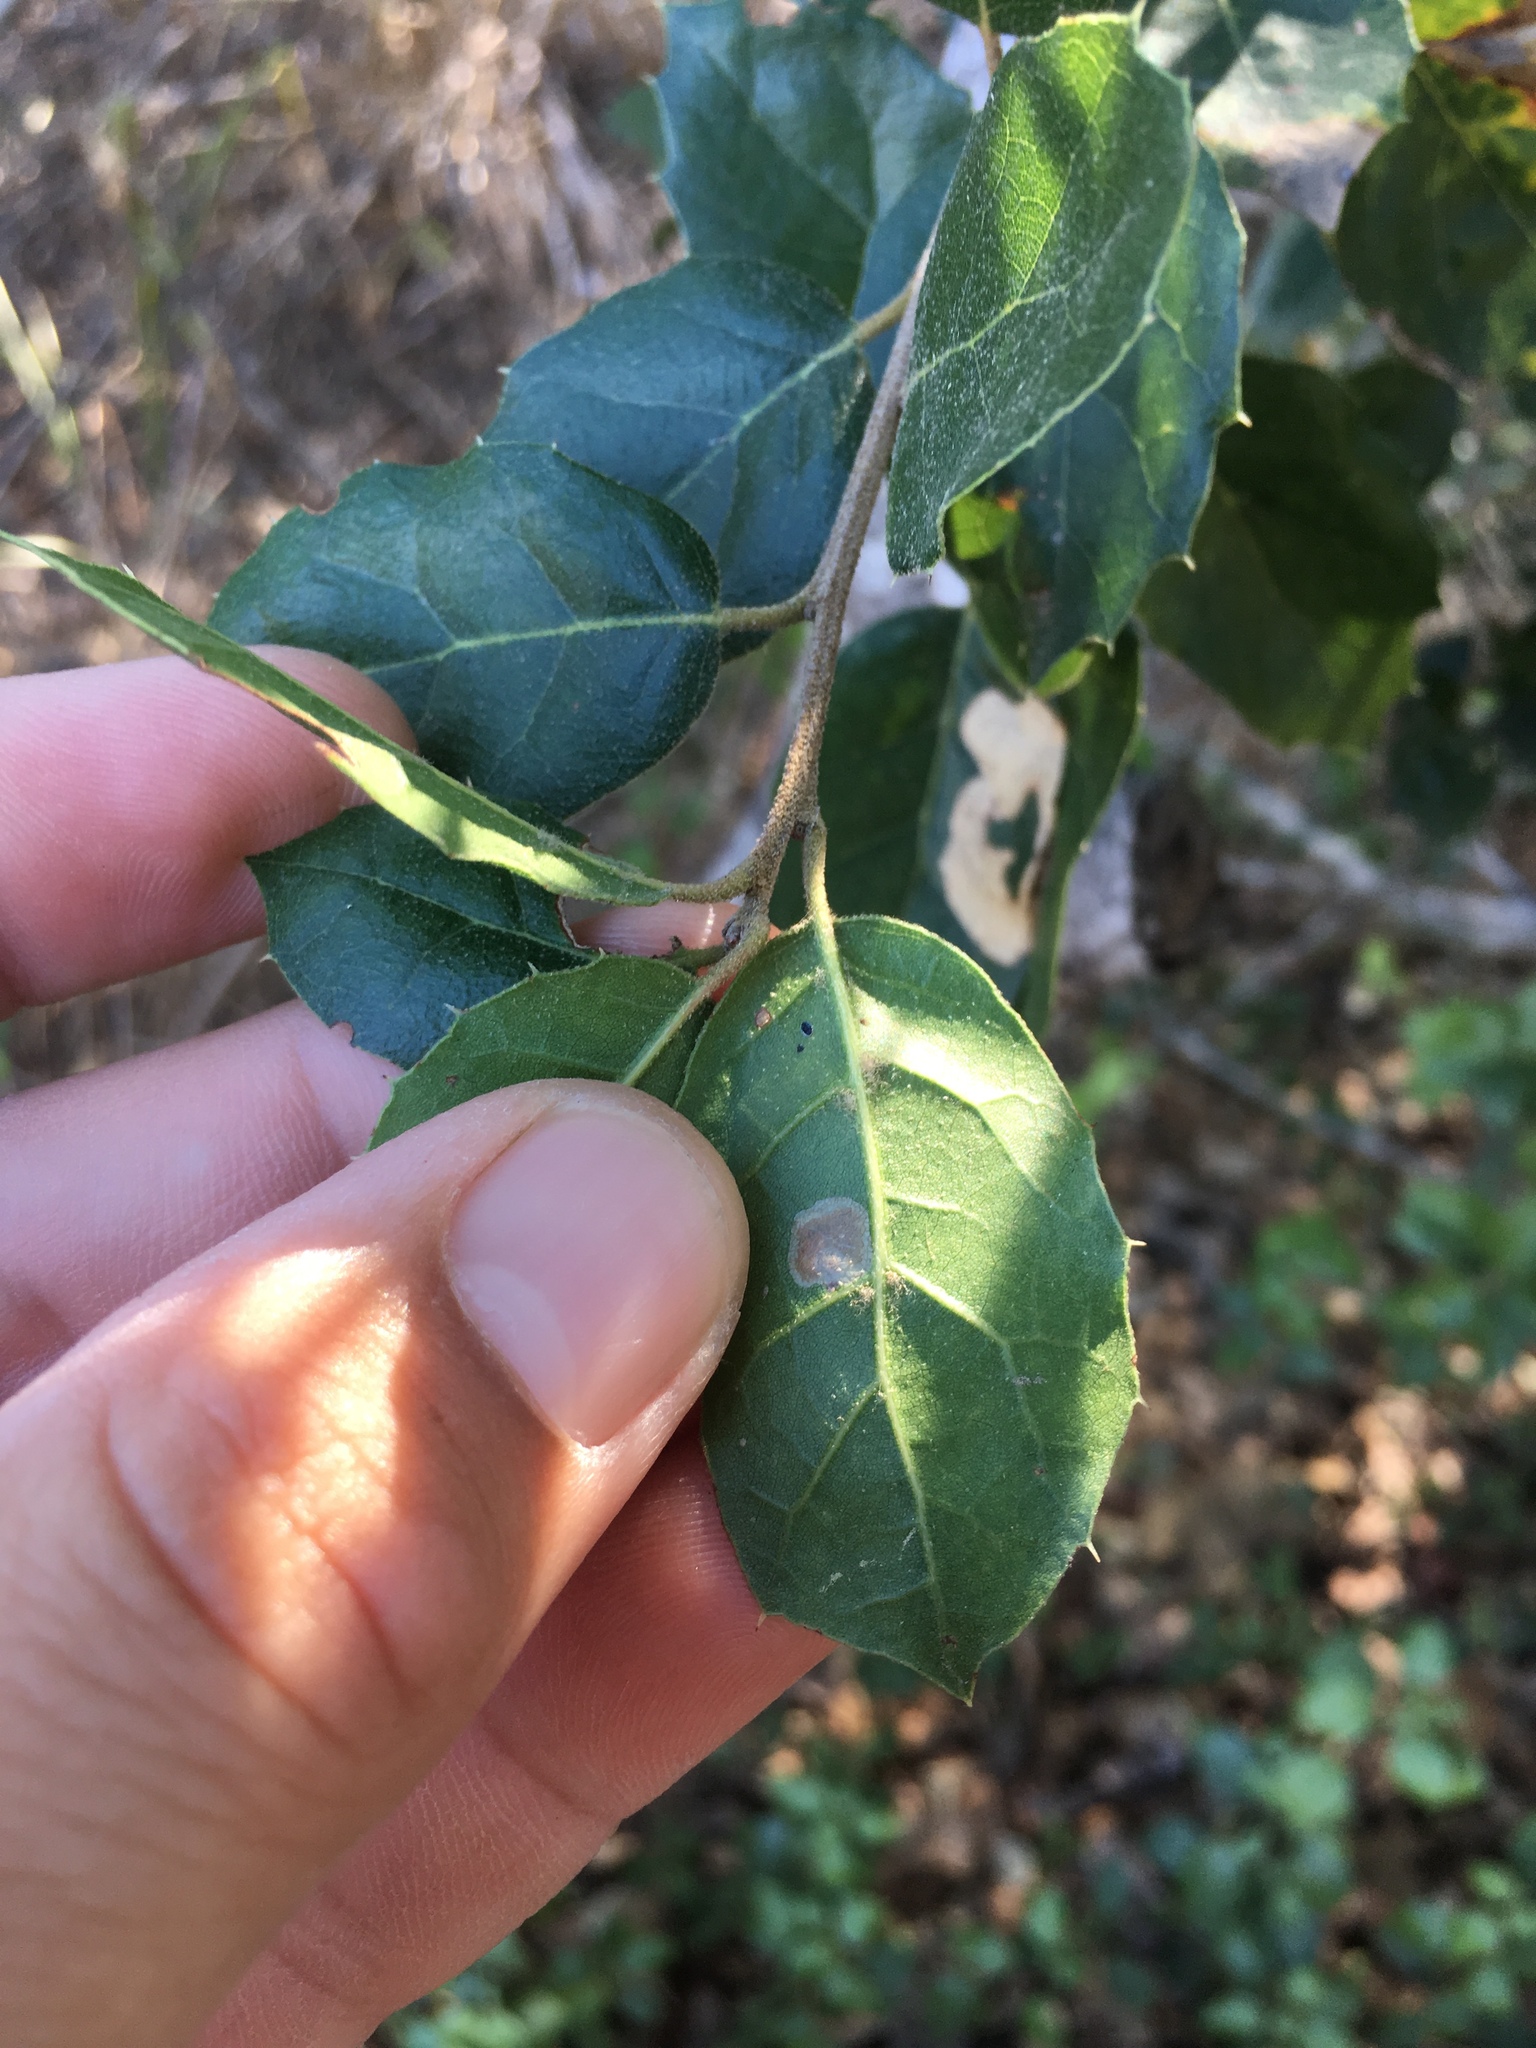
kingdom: Plantae
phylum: Tracheophyta
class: Magnoliopsida
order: Fagales
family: Fagaceae
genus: Quercus
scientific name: Quercus agrifolia
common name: California live oak
